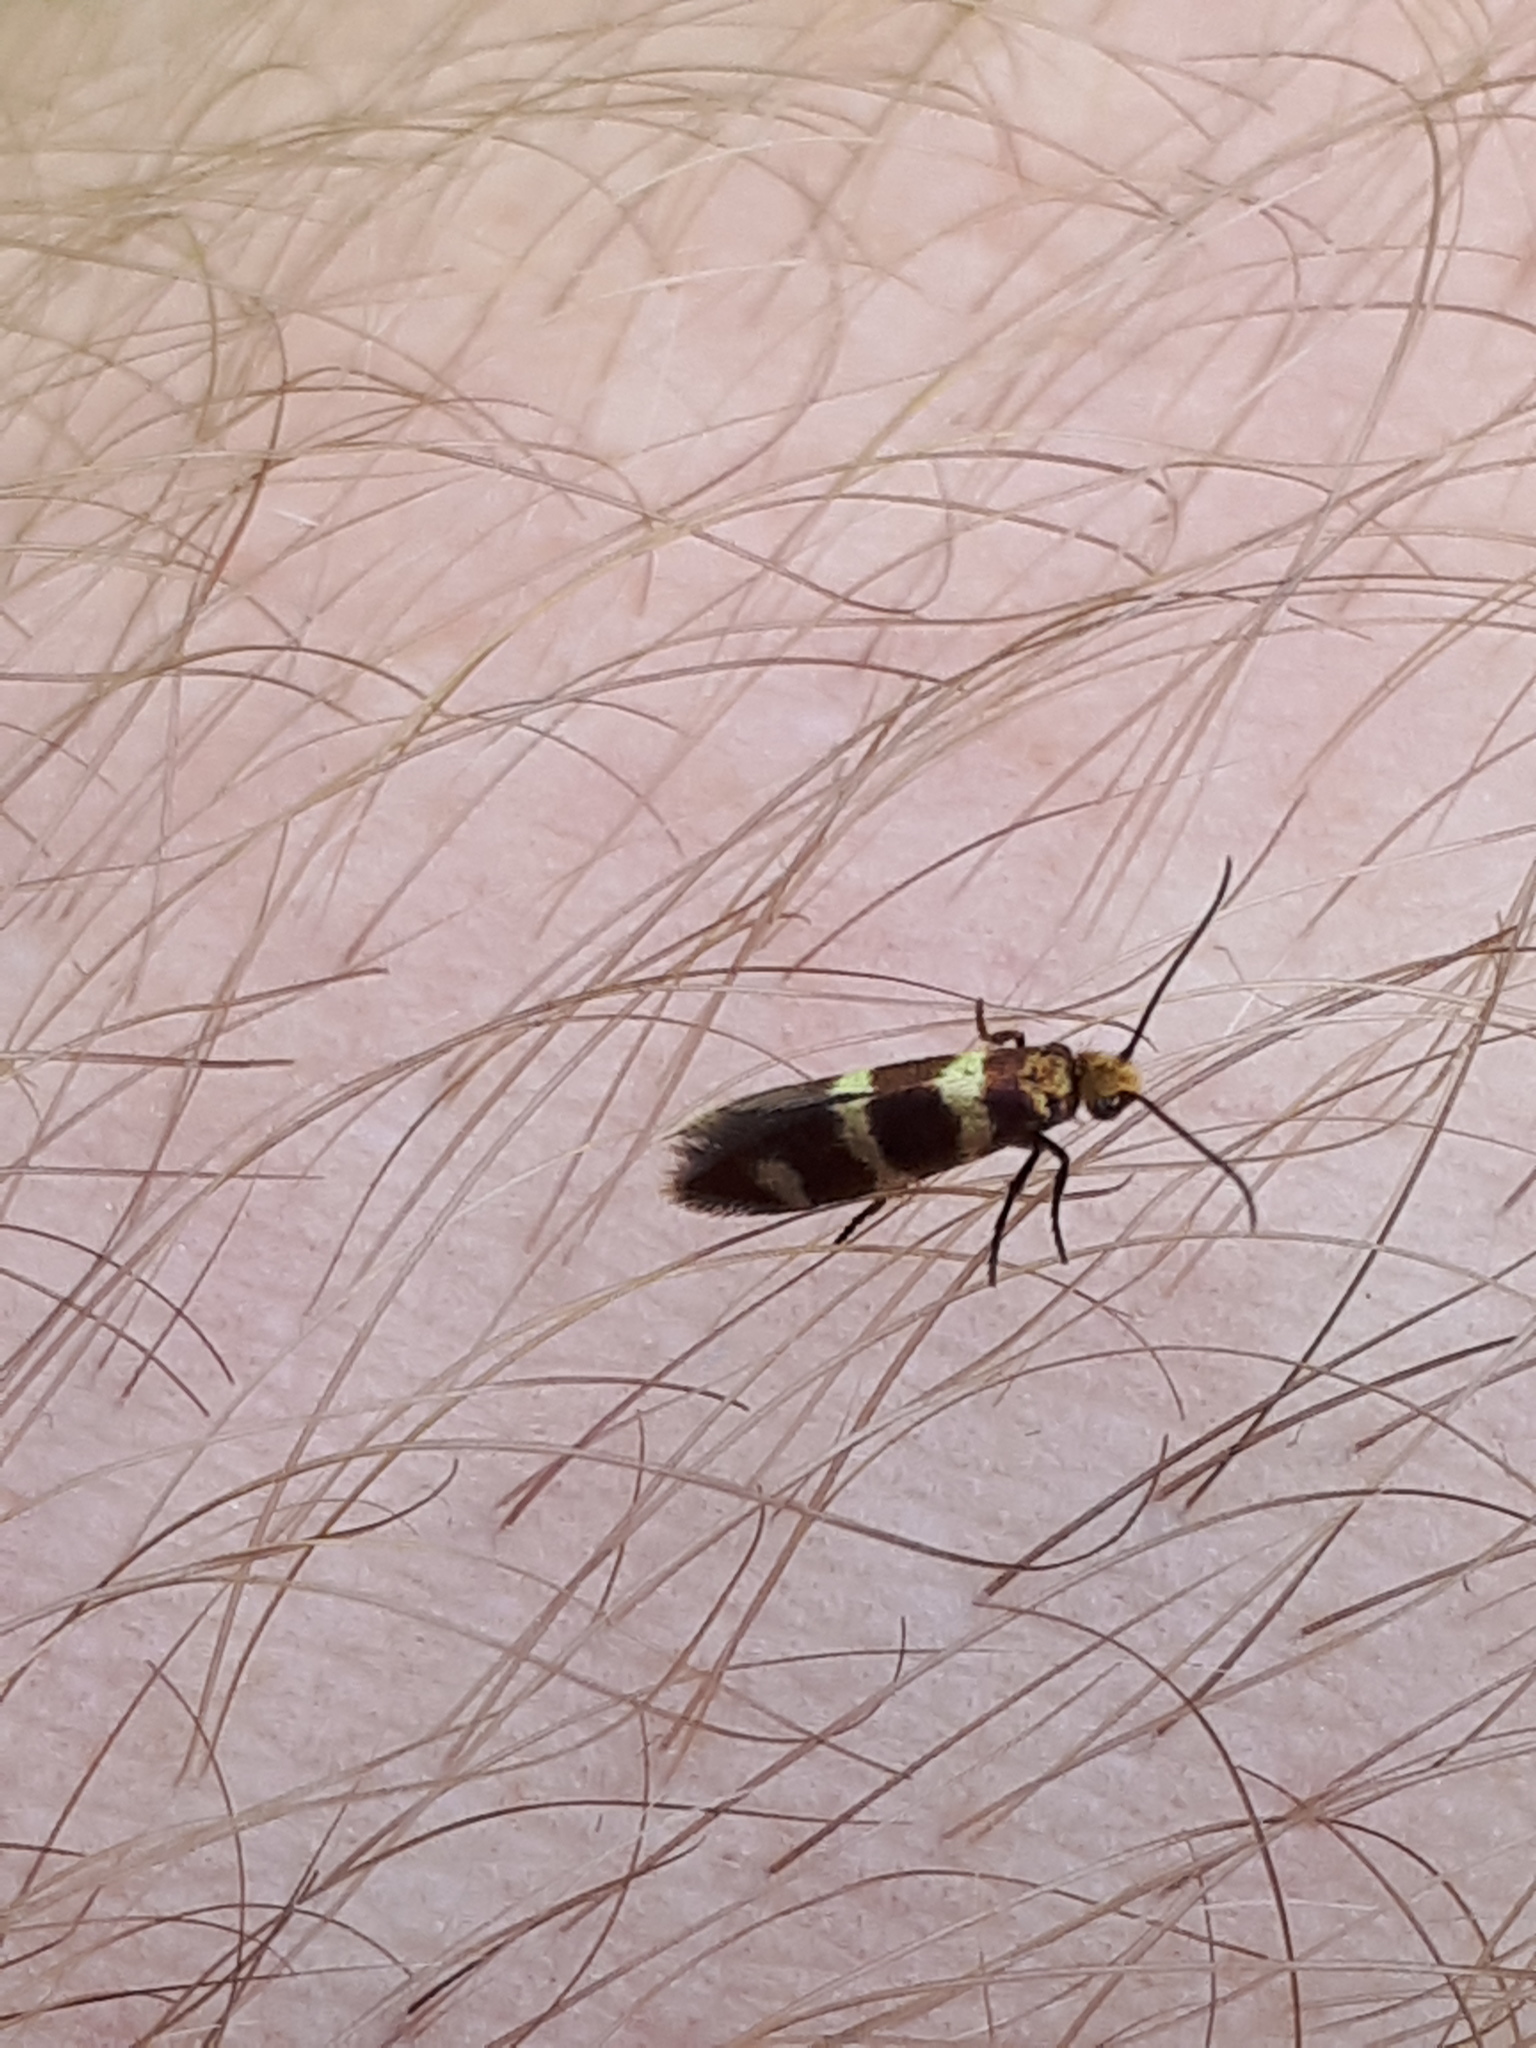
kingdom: Animalia
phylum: Arthropoda
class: Insecta
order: Lepidoptera
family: Micropterigidae
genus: Micropterix
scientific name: Micropterix aureatella
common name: Yellow-barred gold
